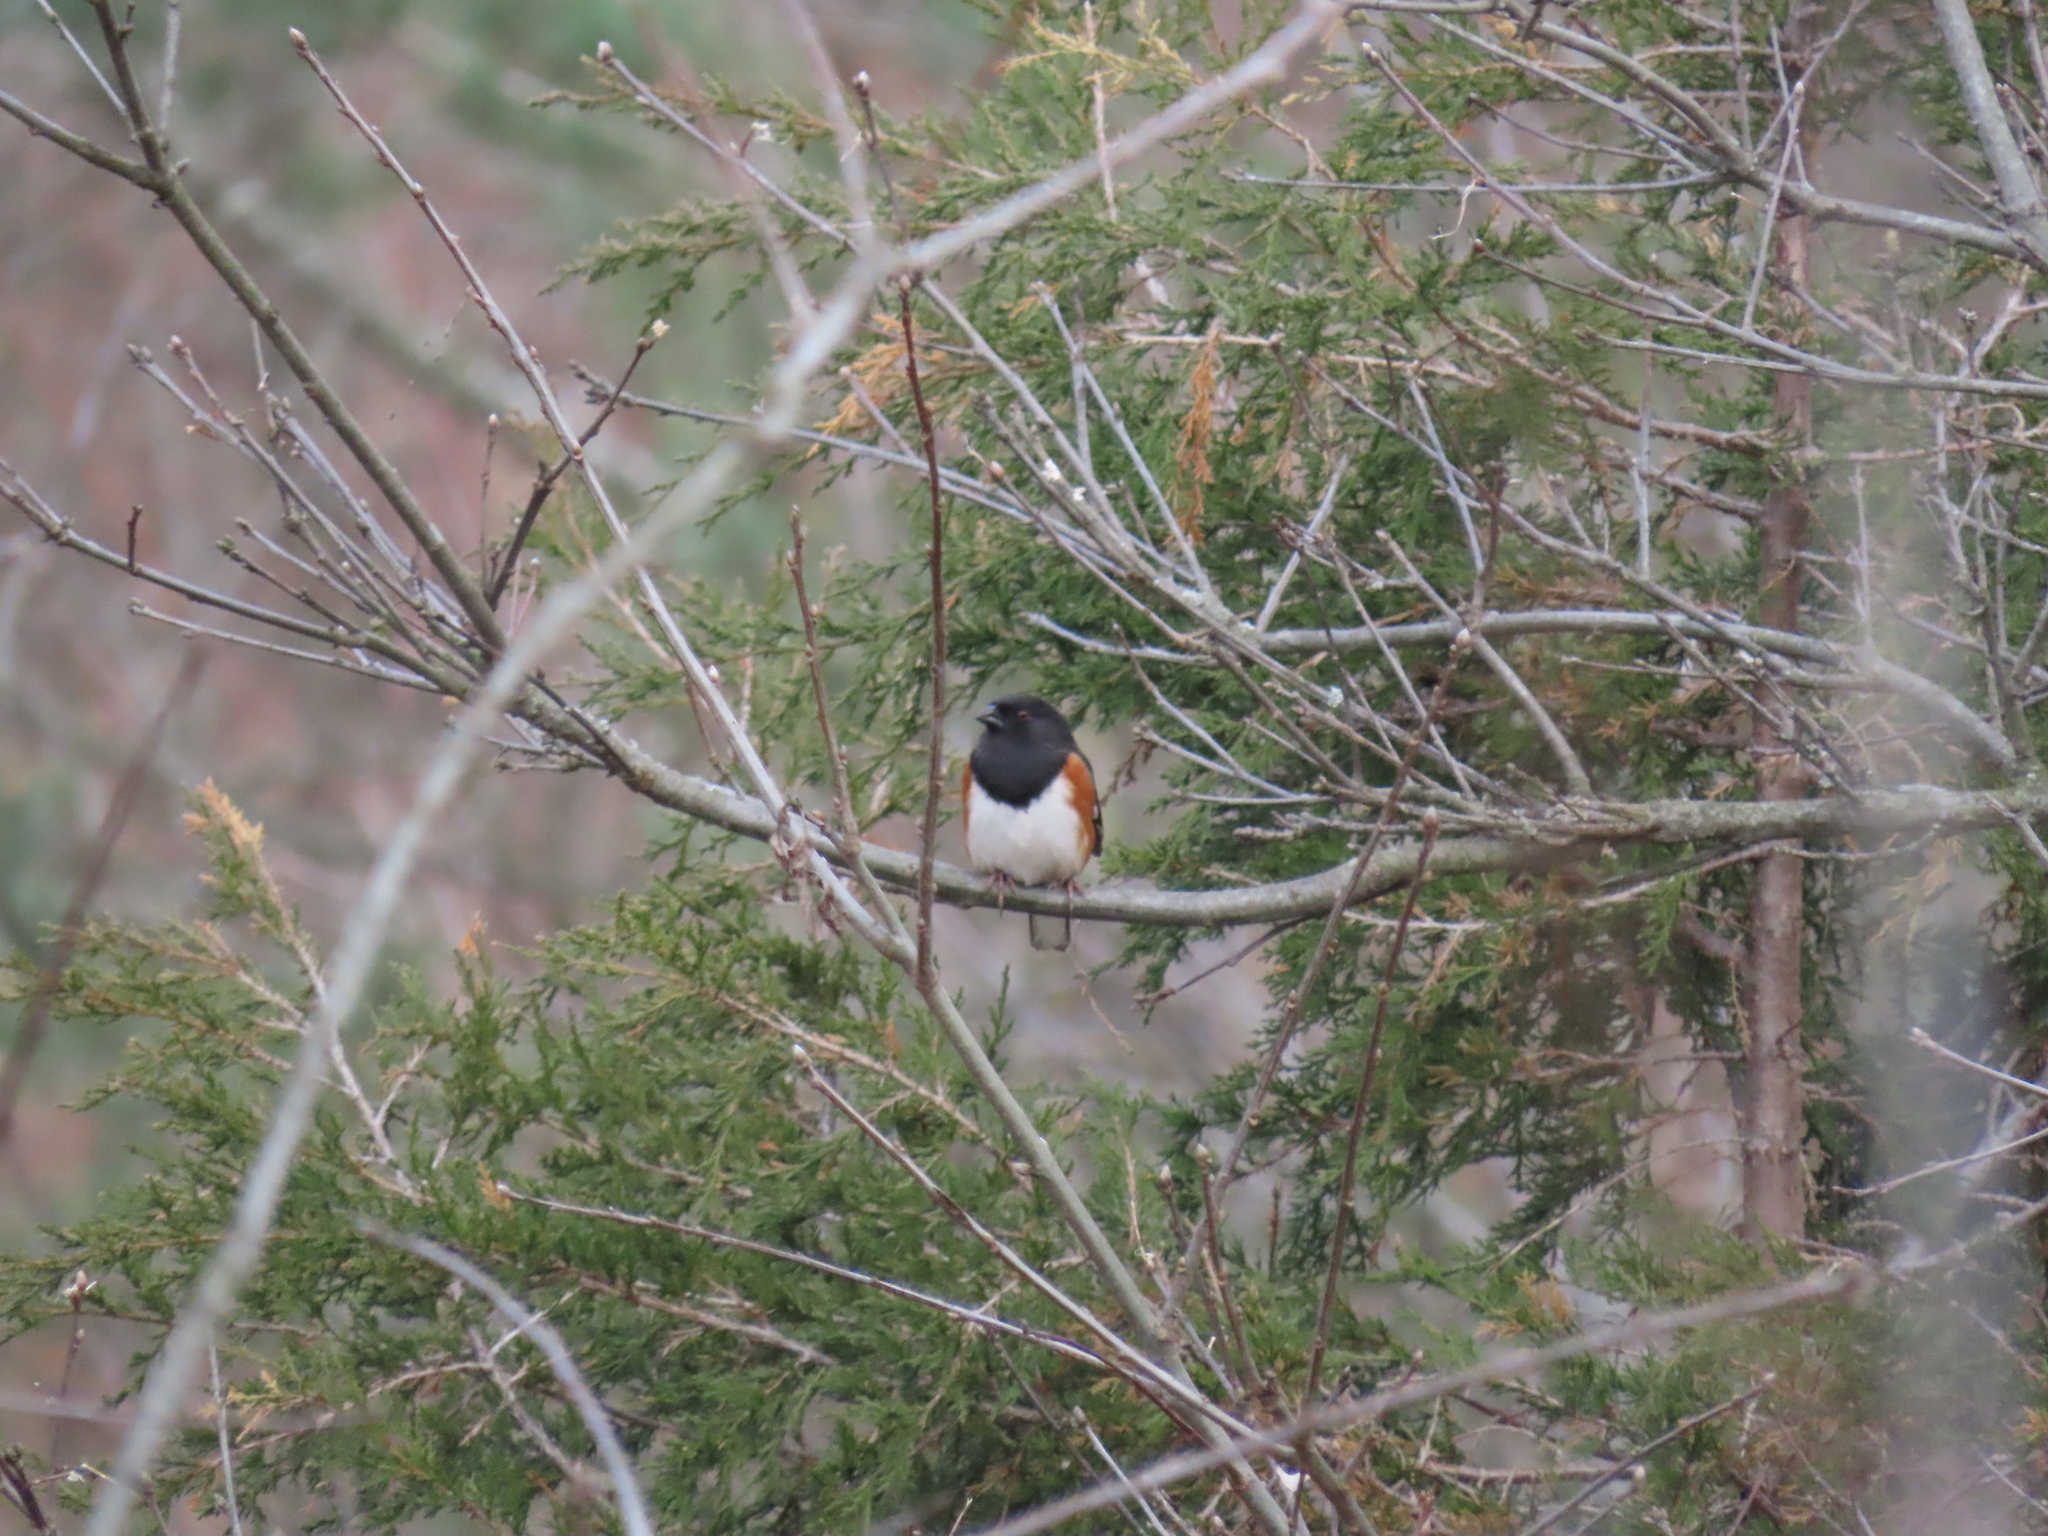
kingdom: Animalia
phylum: Chordata
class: Aves
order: Passeriformes
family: Passerellidae
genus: Pipilo
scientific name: Pipilo erythrophthalmus
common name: Eastern towhee
